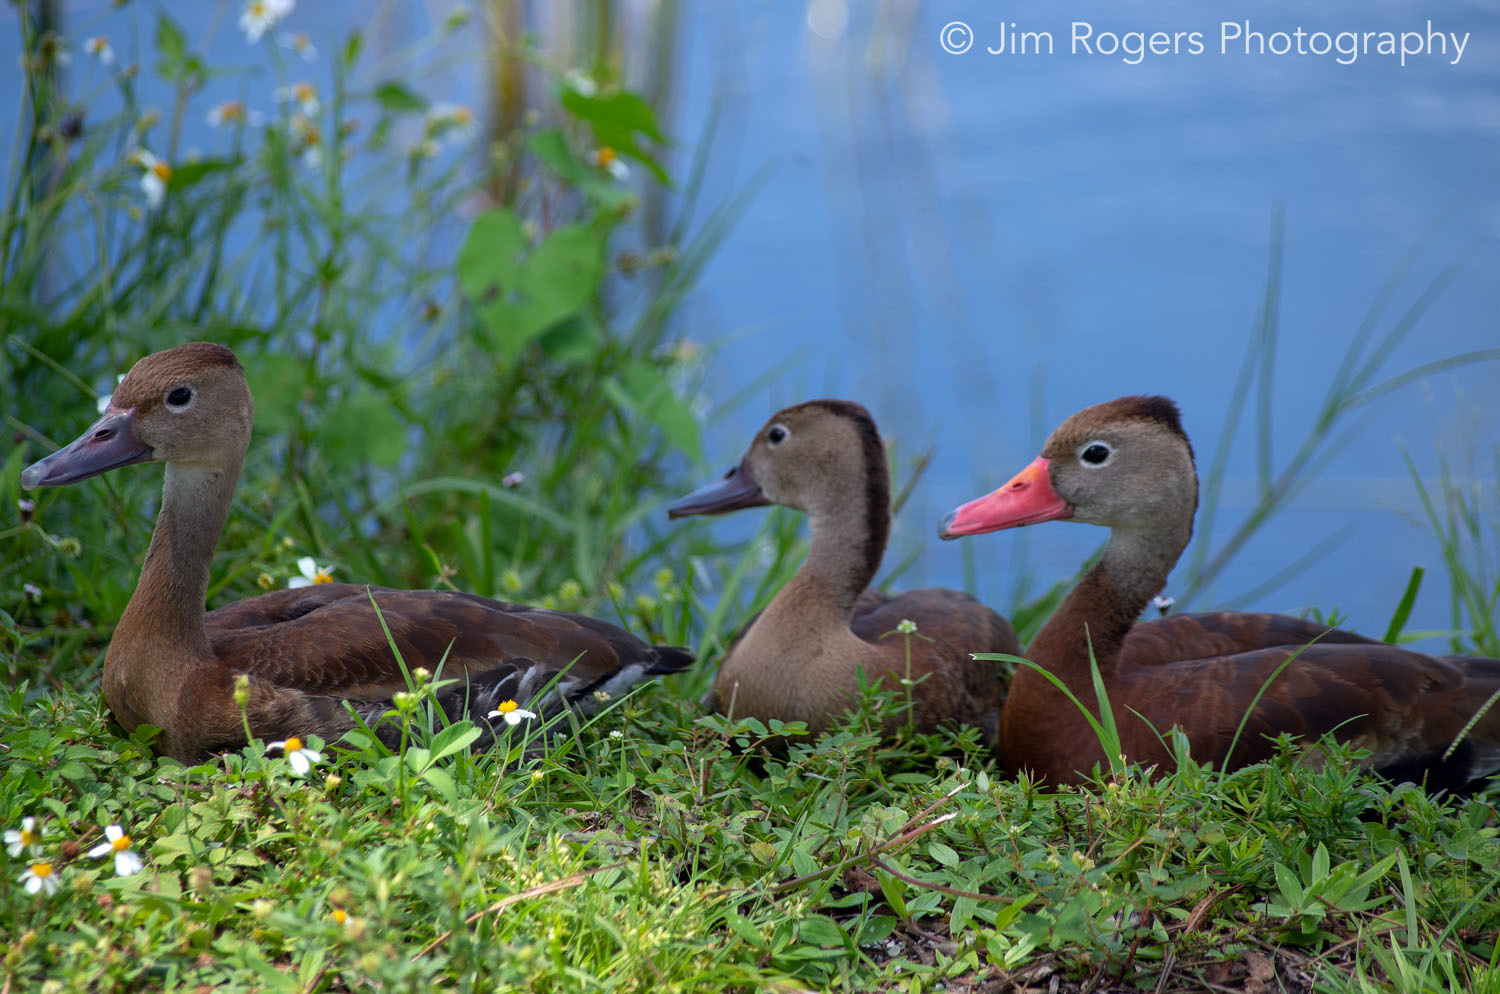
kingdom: Animalia
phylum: Chordata
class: Aves
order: Anseriformes
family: Anatidae
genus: Dendrocygna
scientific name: Dendrocygna autumnalis
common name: Black-bellied whistling duck
